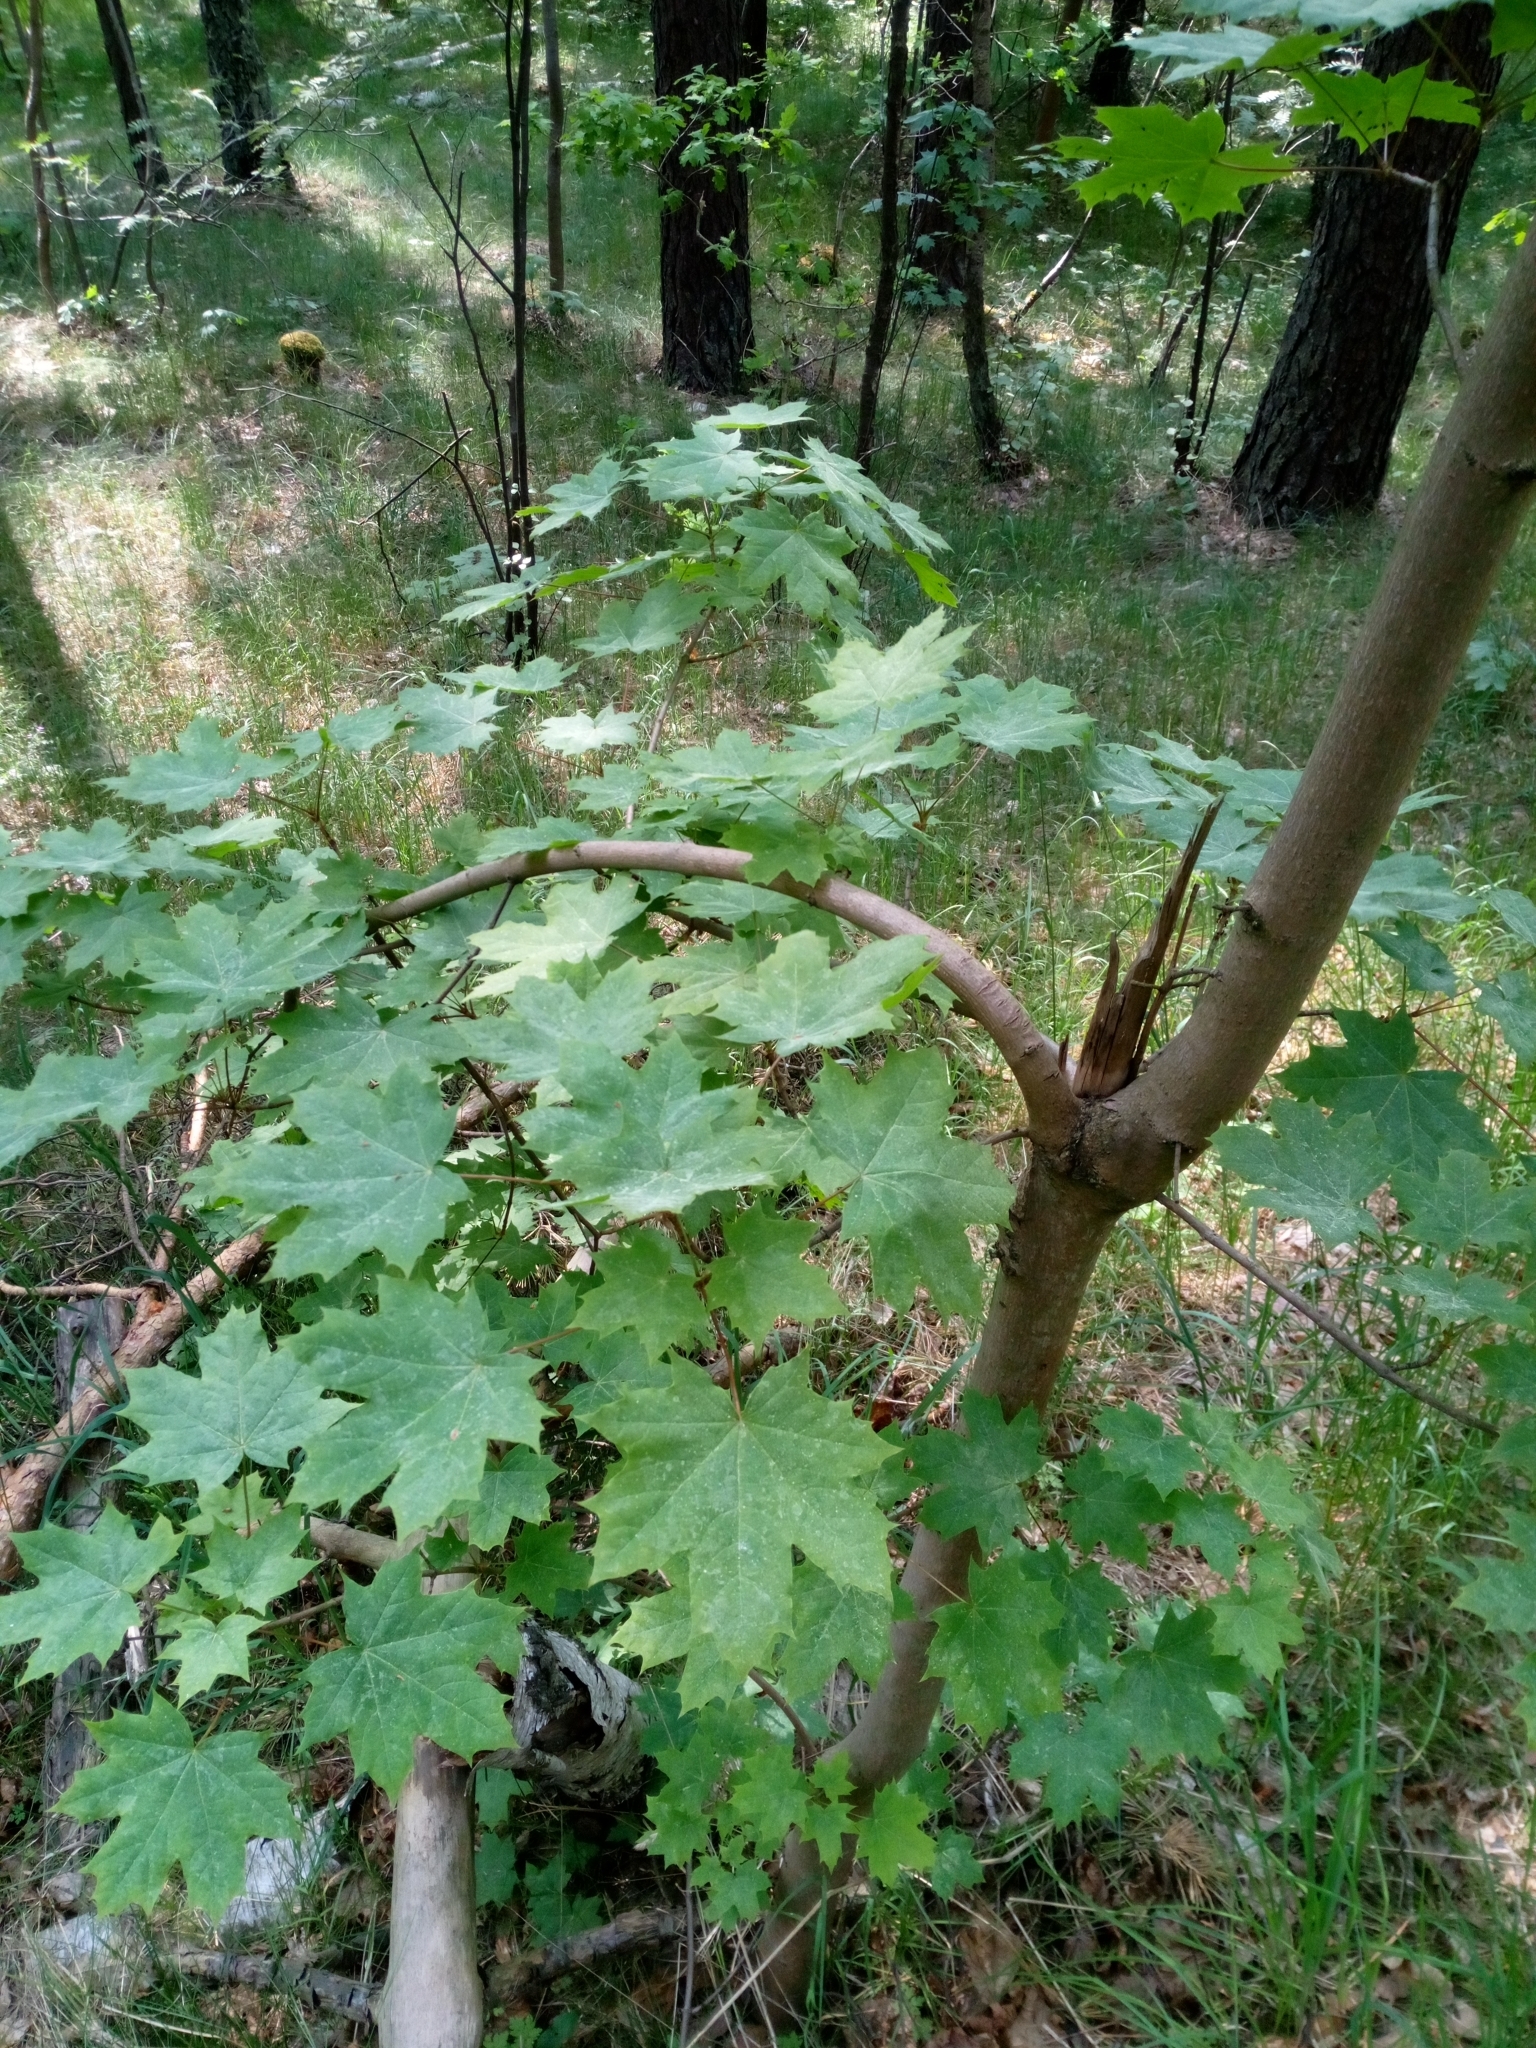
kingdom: Plantae
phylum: Tracheophyta
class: Magnoliopsida
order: Sapindales
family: Sapindaceae
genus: Acer
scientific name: Acer platanoides
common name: Norway maple
